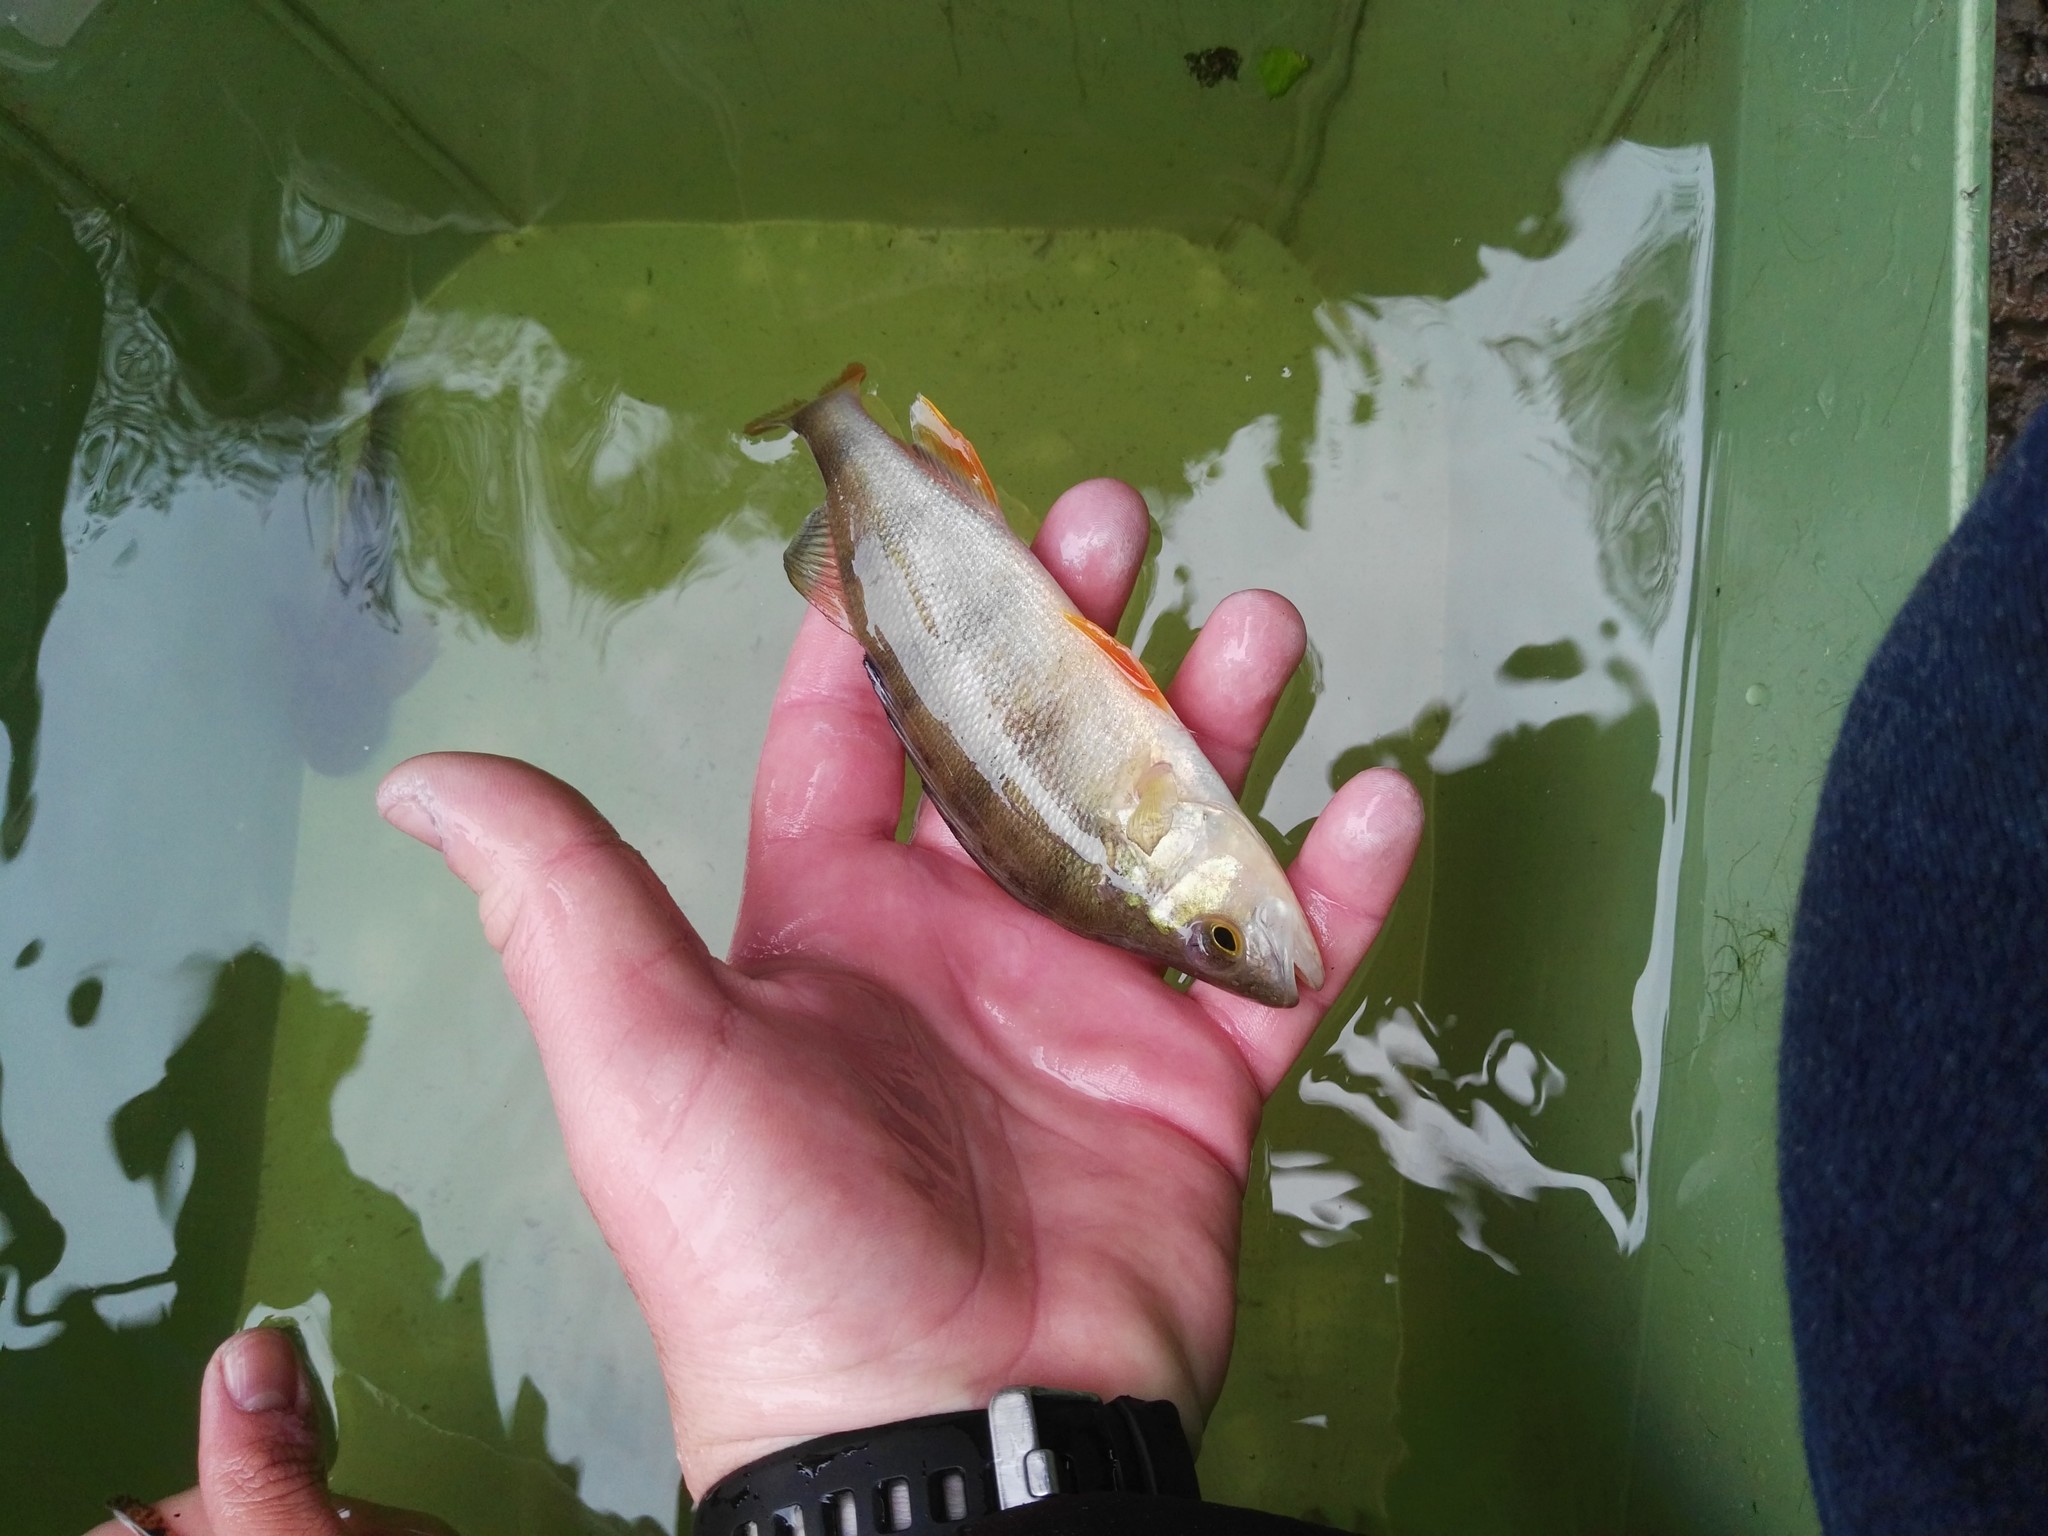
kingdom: Animalia
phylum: Chordata
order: Perciformes
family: Percidae
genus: Perca
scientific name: Perca fluviatilis
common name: Perch
